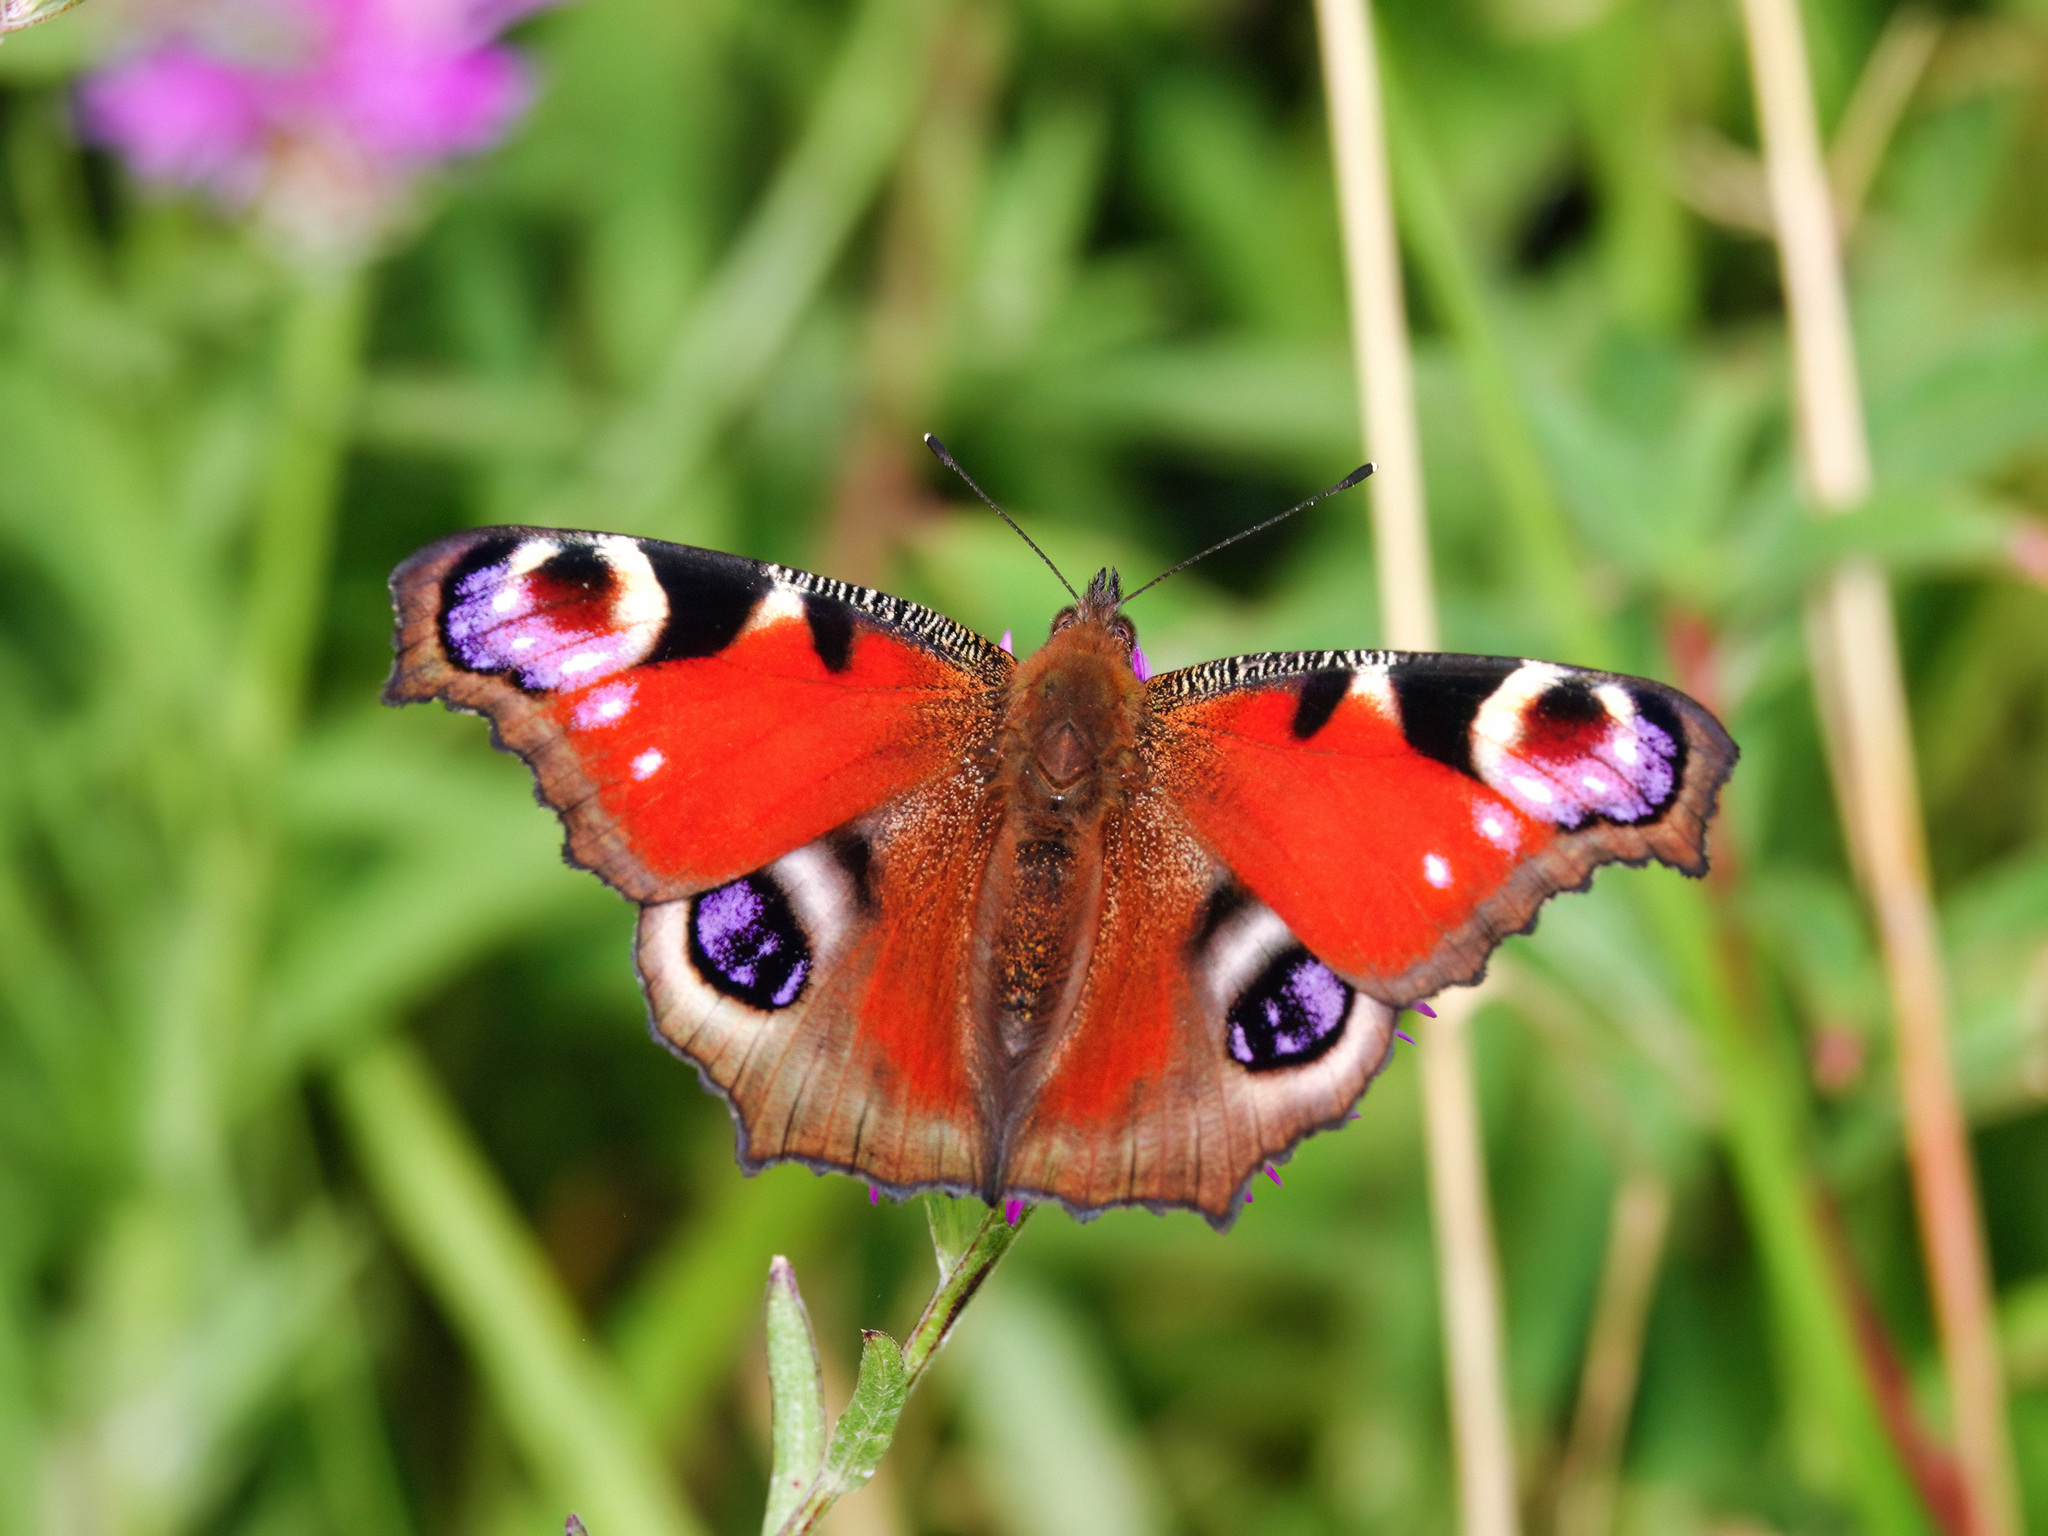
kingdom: Animalia
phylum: Arthropoda
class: Insecta
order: Lepidoptera
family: Nymphalidae
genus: Aglais
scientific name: Aglais io
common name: Peacock
